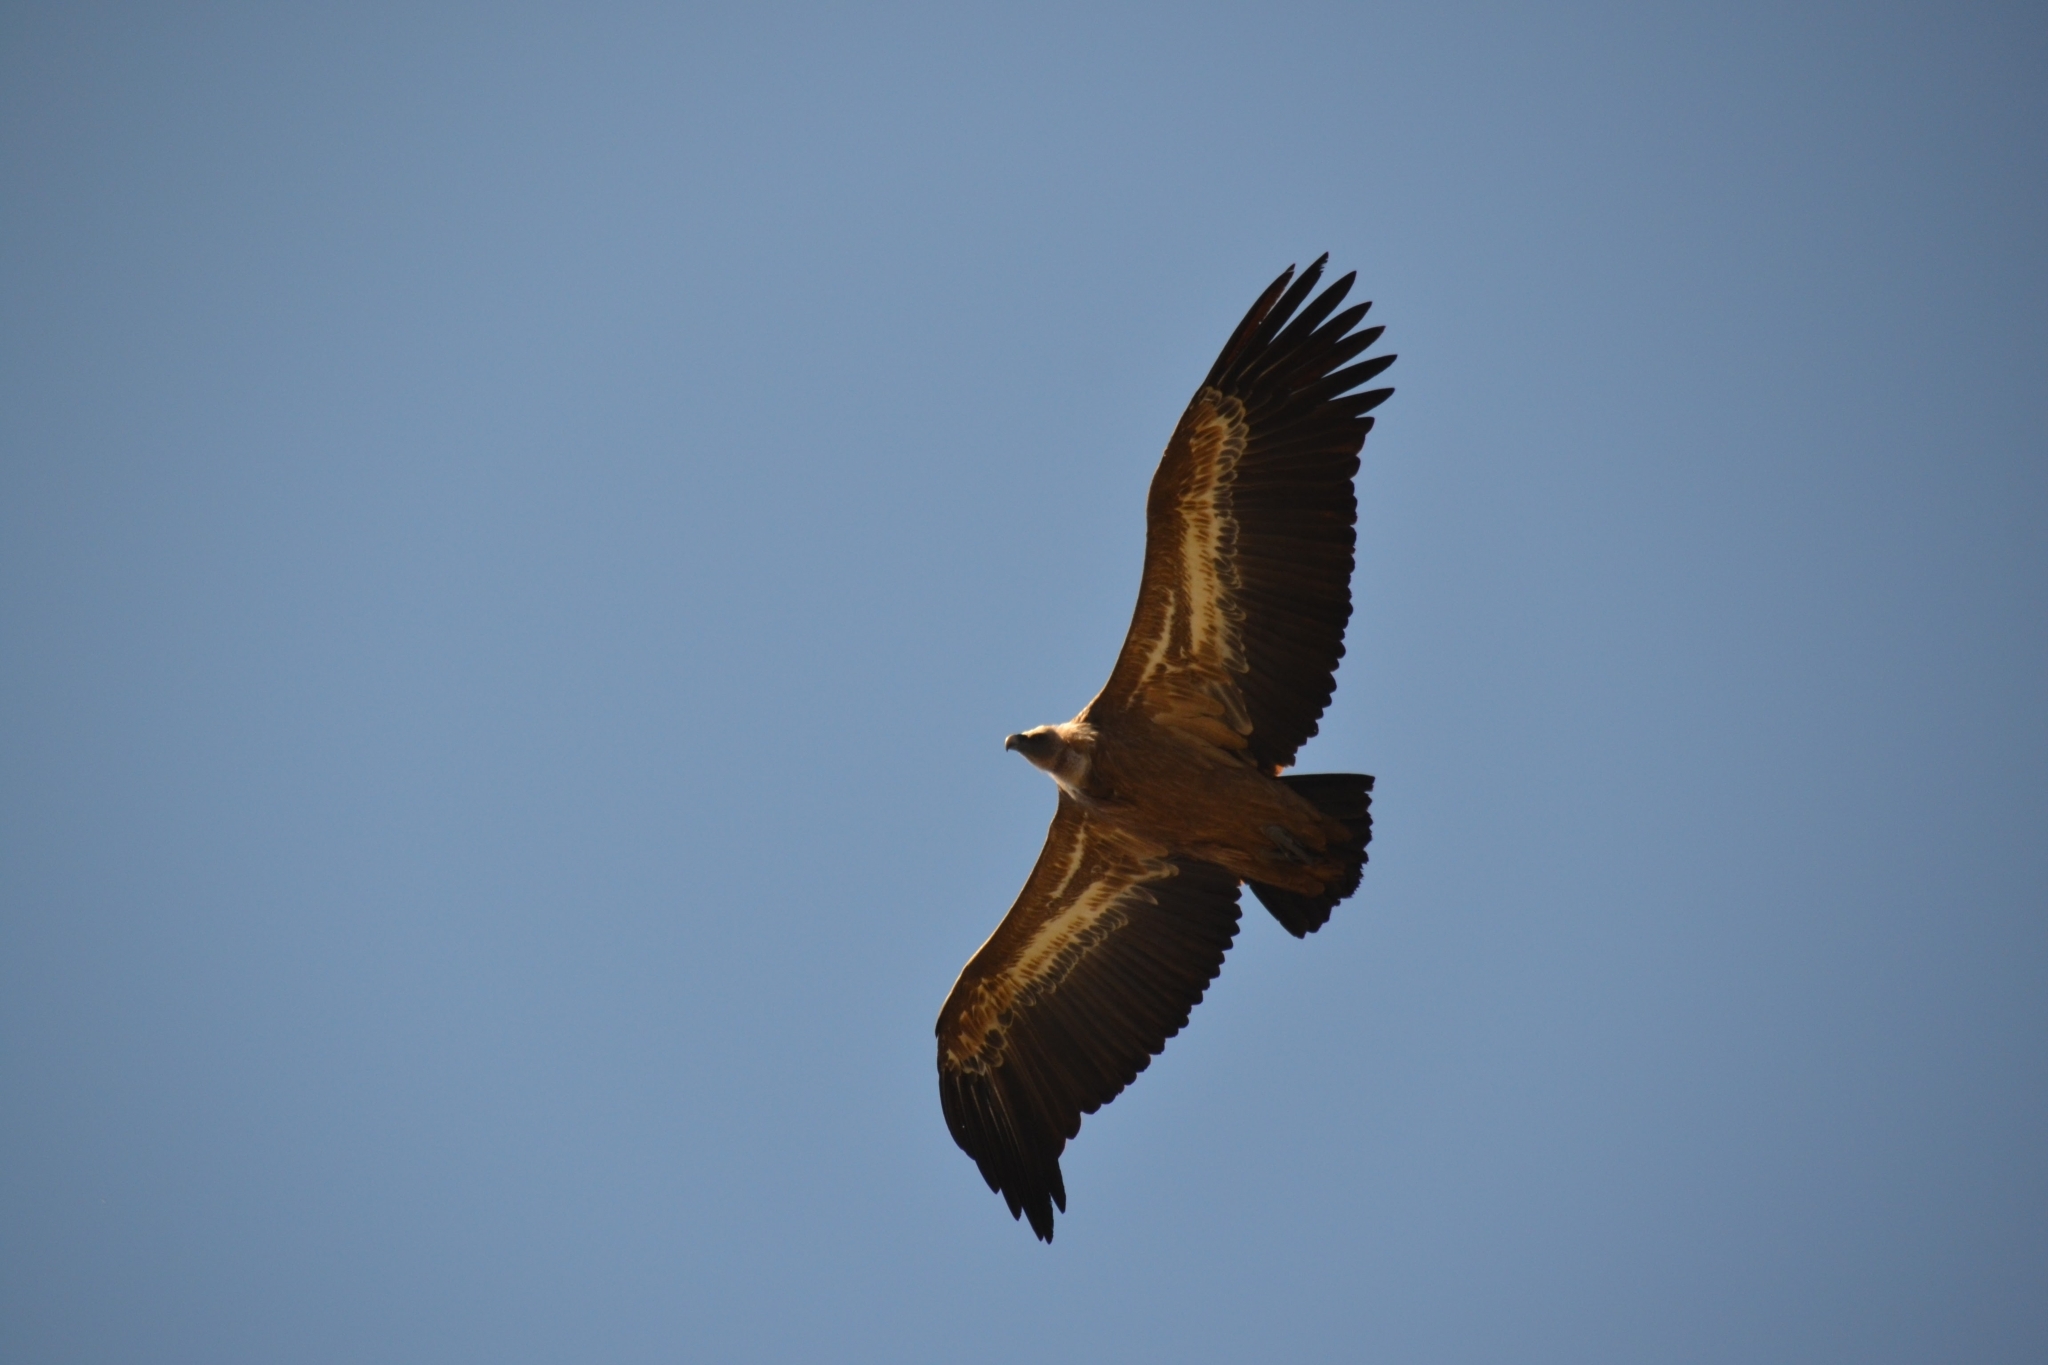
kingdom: Animalia
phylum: Chordata
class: Aves
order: Accipitriformes
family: Accipitridae
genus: Gyps
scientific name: Gyps fulvus
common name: Griffon vulture
